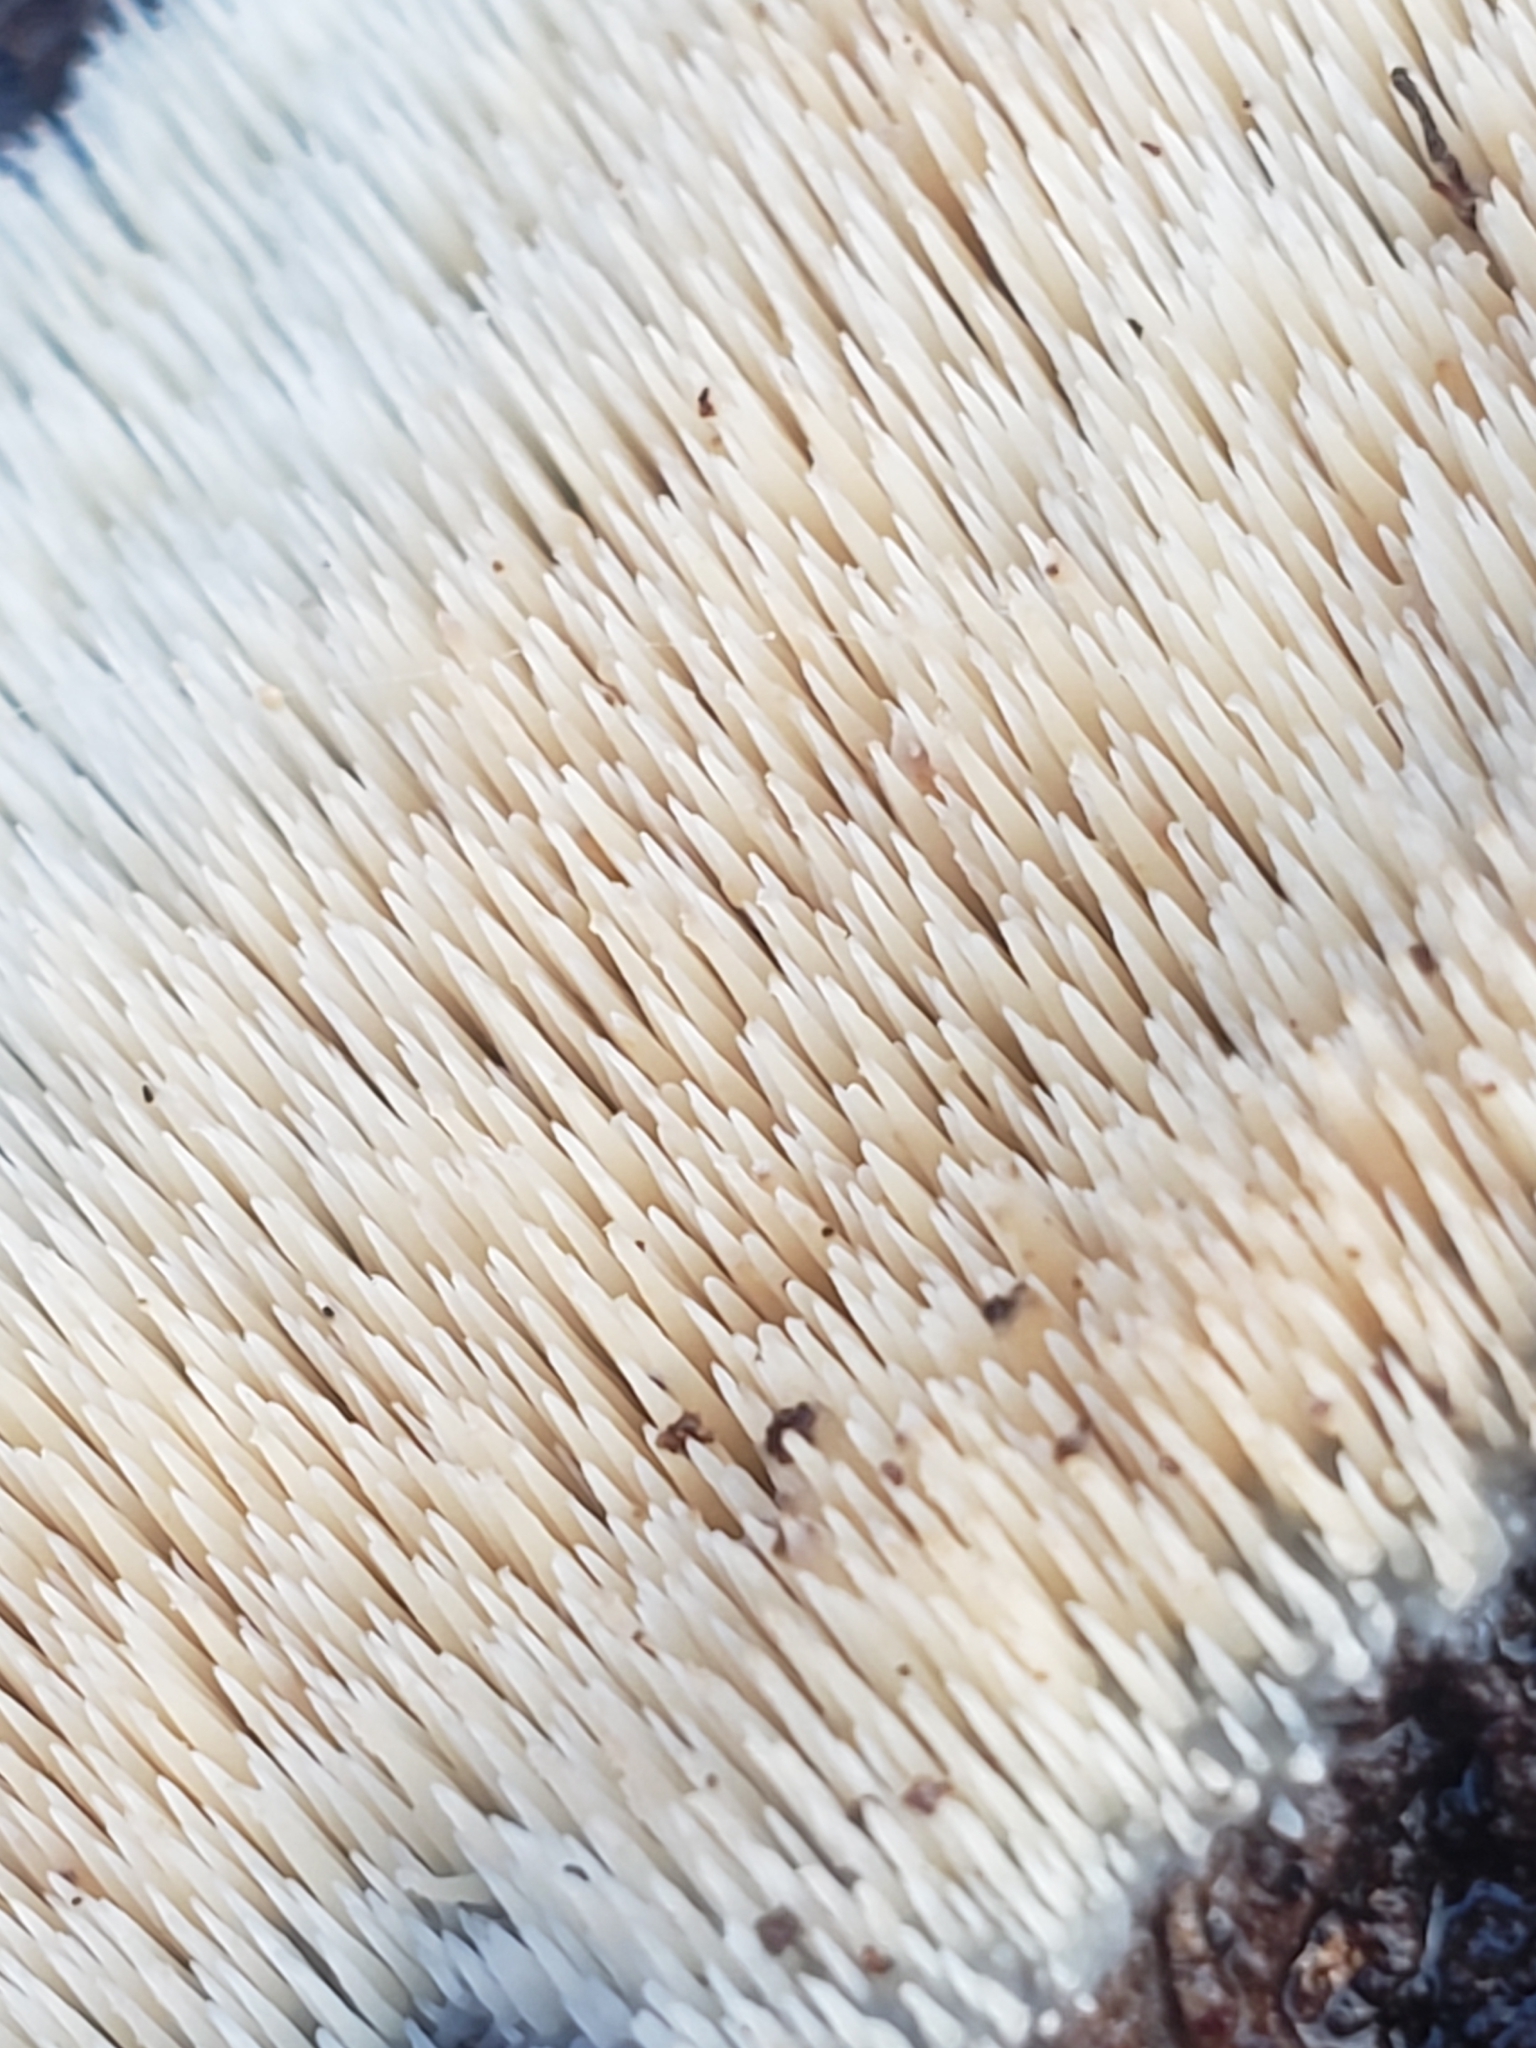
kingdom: Fungi
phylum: Basidiomycota
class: Agaricomycetes
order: Agaricales
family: Radulomycetaceae
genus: Radulomyces
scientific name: Radulomyces copelandii
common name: Asian beauty
